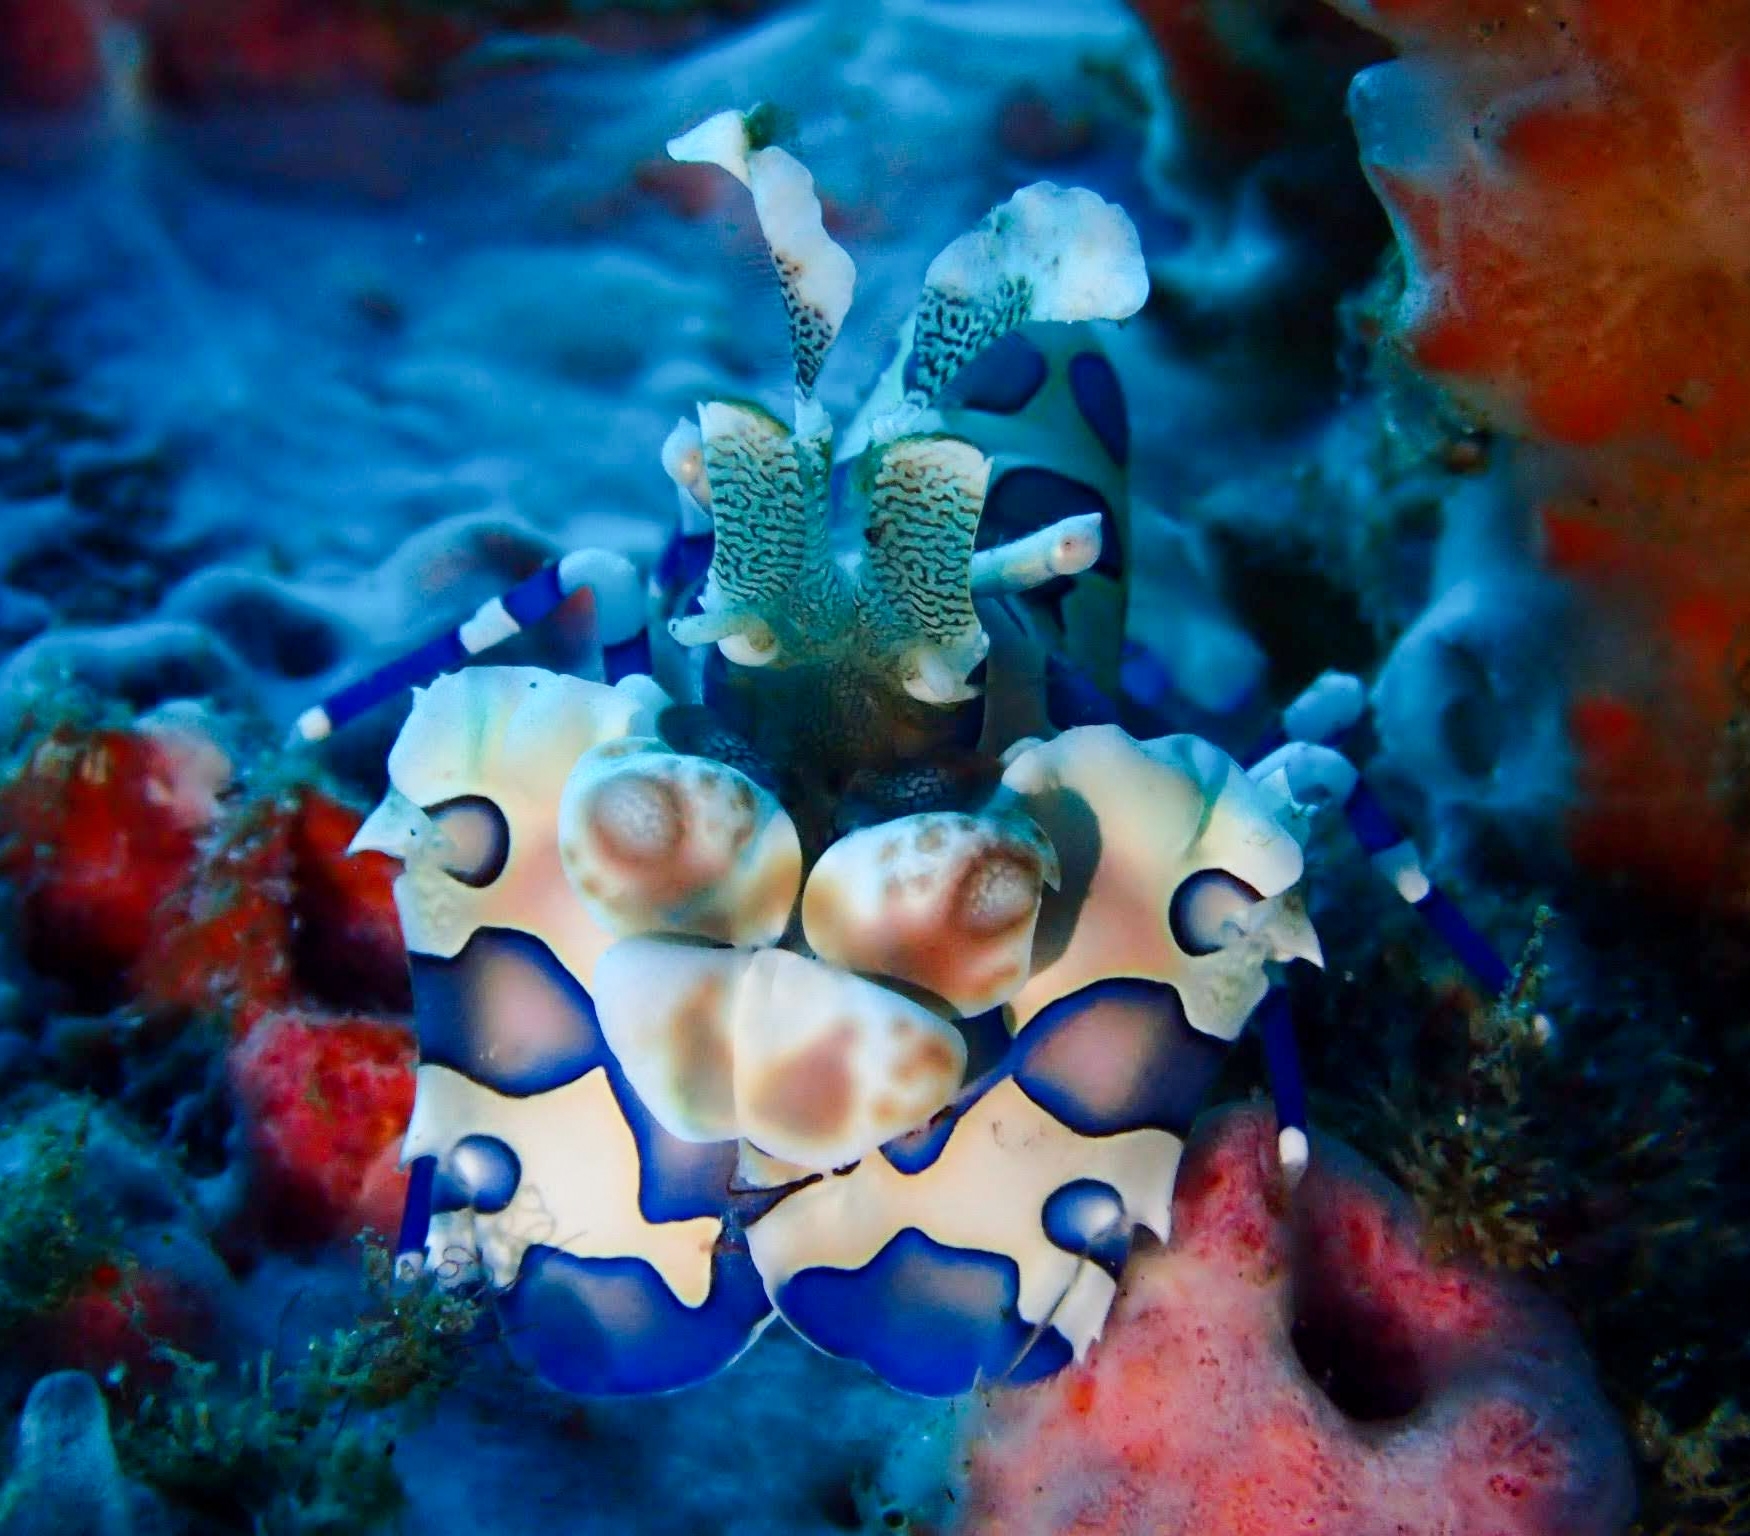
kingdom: Animalia
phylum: Arthropoda
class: Malacostraca
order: Decapoda
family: Palaemonidae
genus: Hymenocera
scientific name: Hymenocera picta
